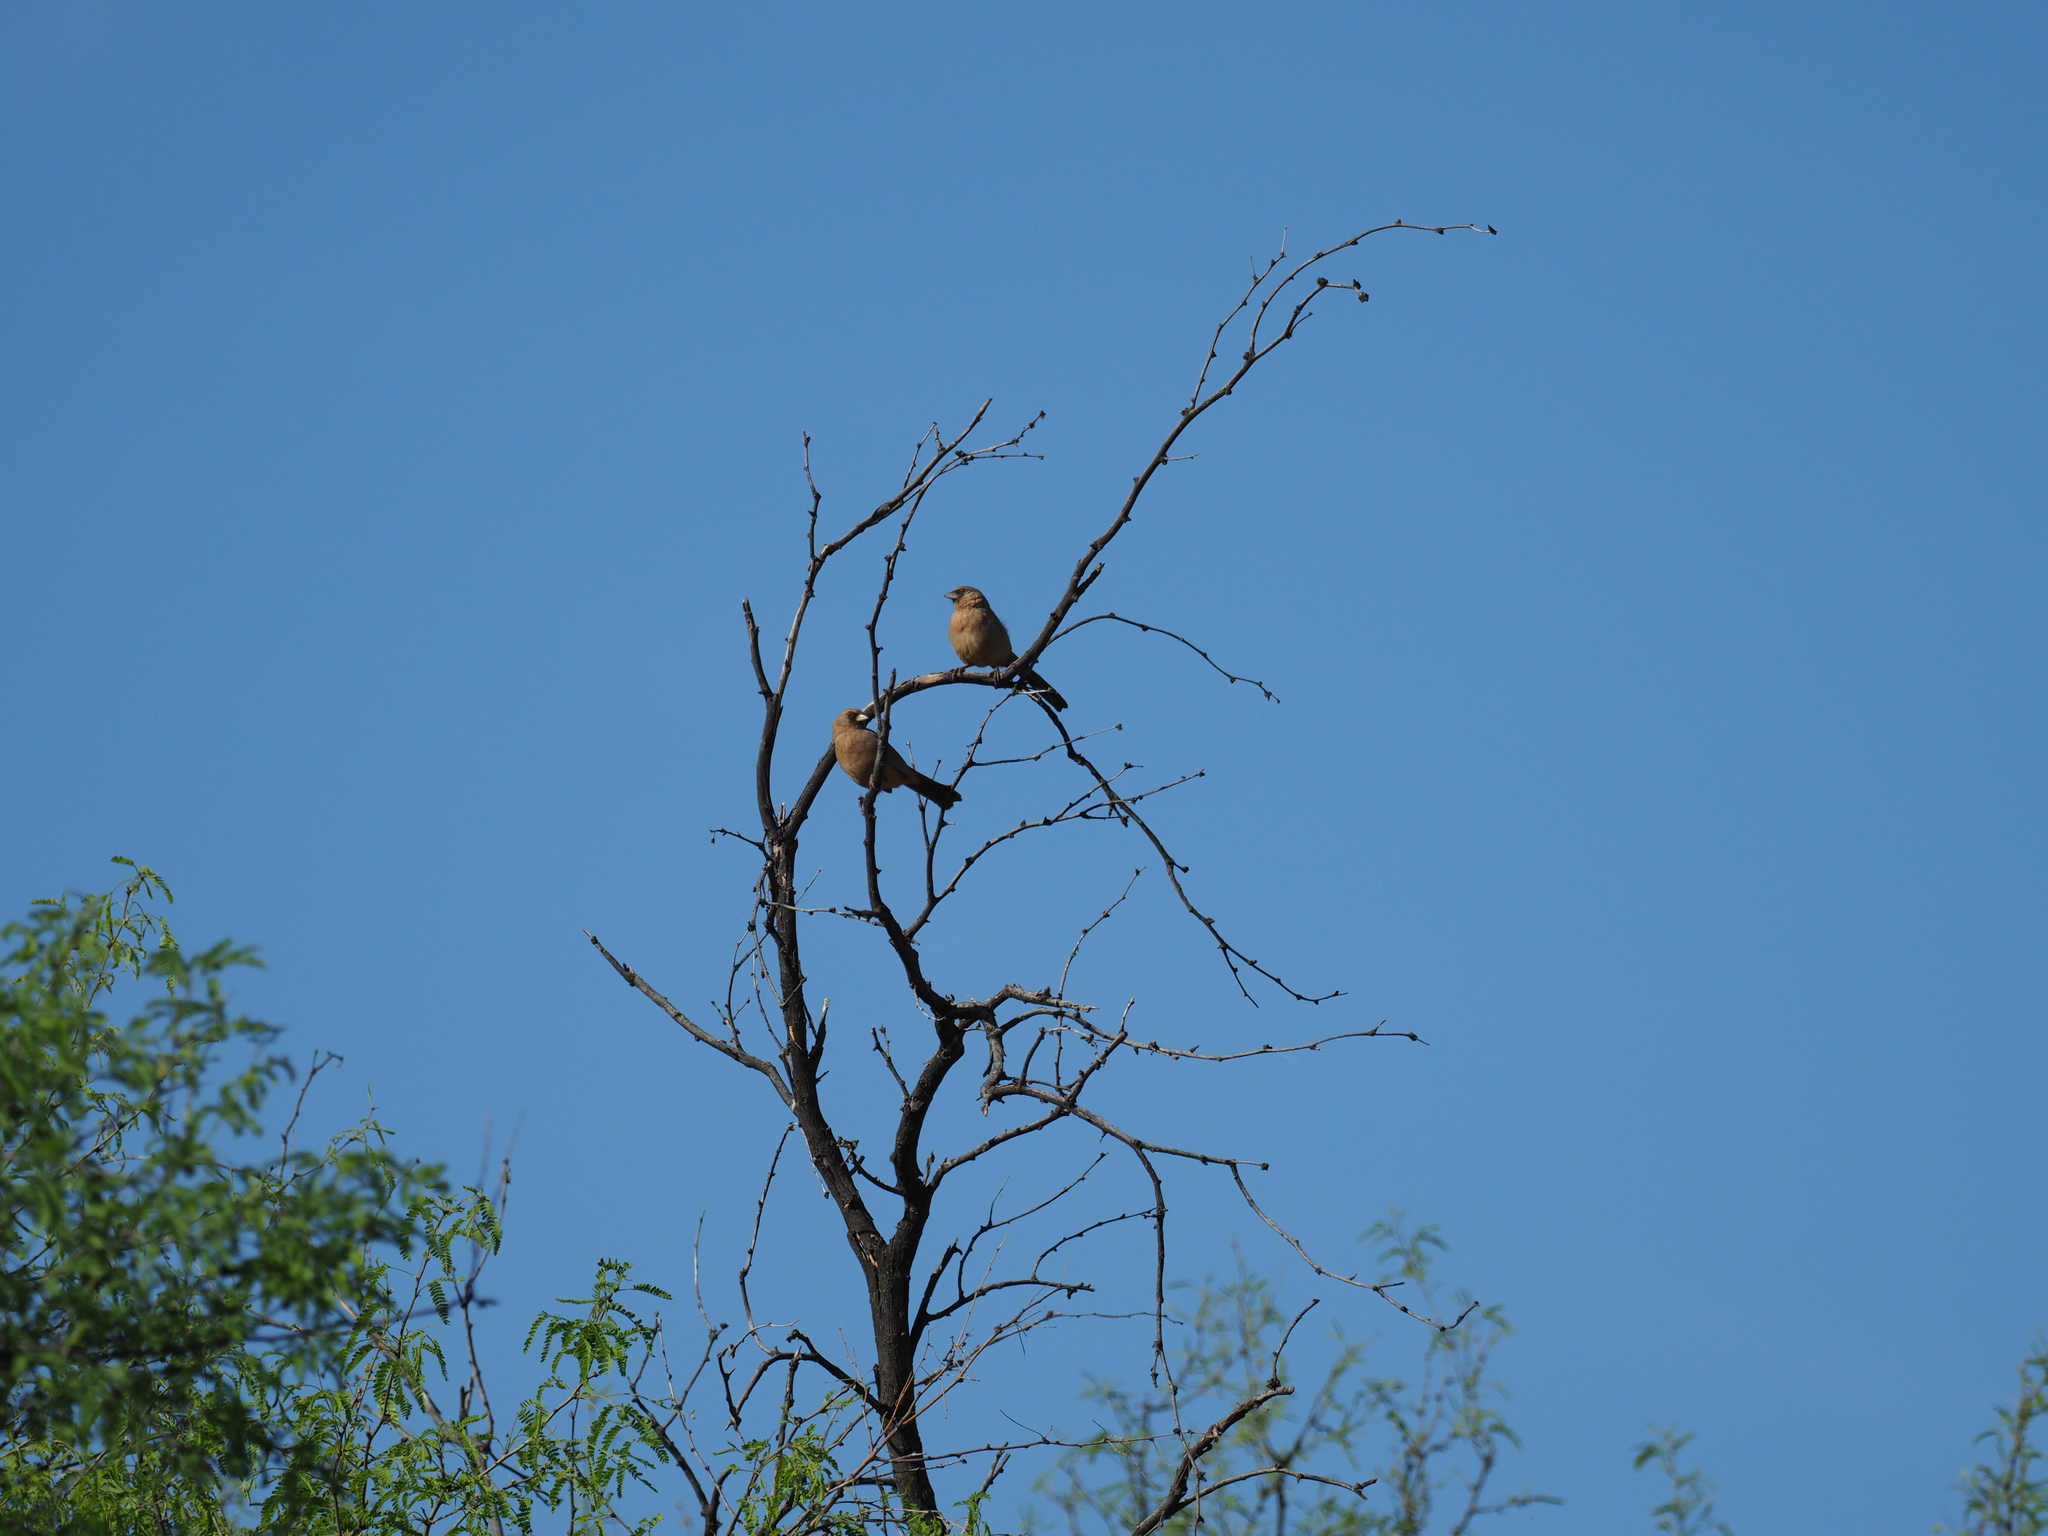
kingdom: Animalia
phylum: Chordata
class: Aves
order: Passeriformes
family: Passerellidae
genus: Melozone
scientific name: Melozone aberti
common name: Abert's towhee
